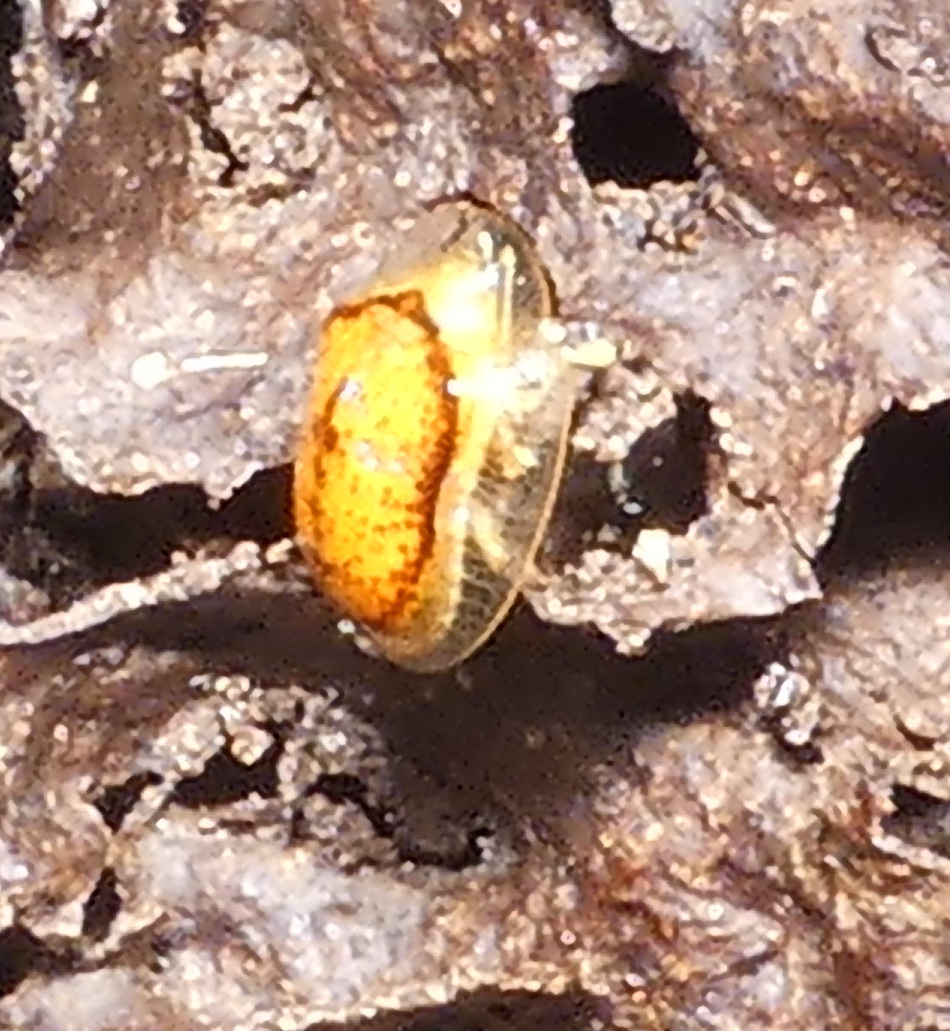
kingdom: Animalia
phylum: Arthropoda
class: Insecta
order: Coleoptera
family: Chrysomelidae
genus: Microctenochira
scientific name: Microctenochira quadrata
